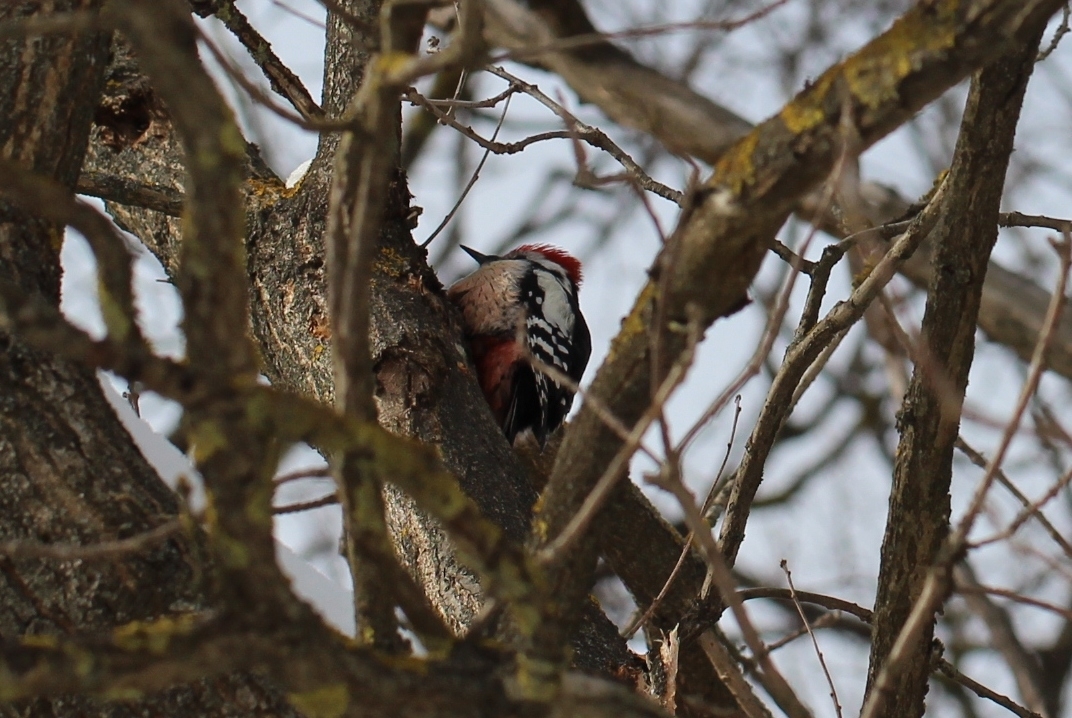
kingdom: Animalia
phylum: Chordata
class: Aves
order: Piciformes
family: Picidae
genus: Dendrocoptes
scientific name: Dendrocoptes medius
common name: Middle spotted woodpecker
